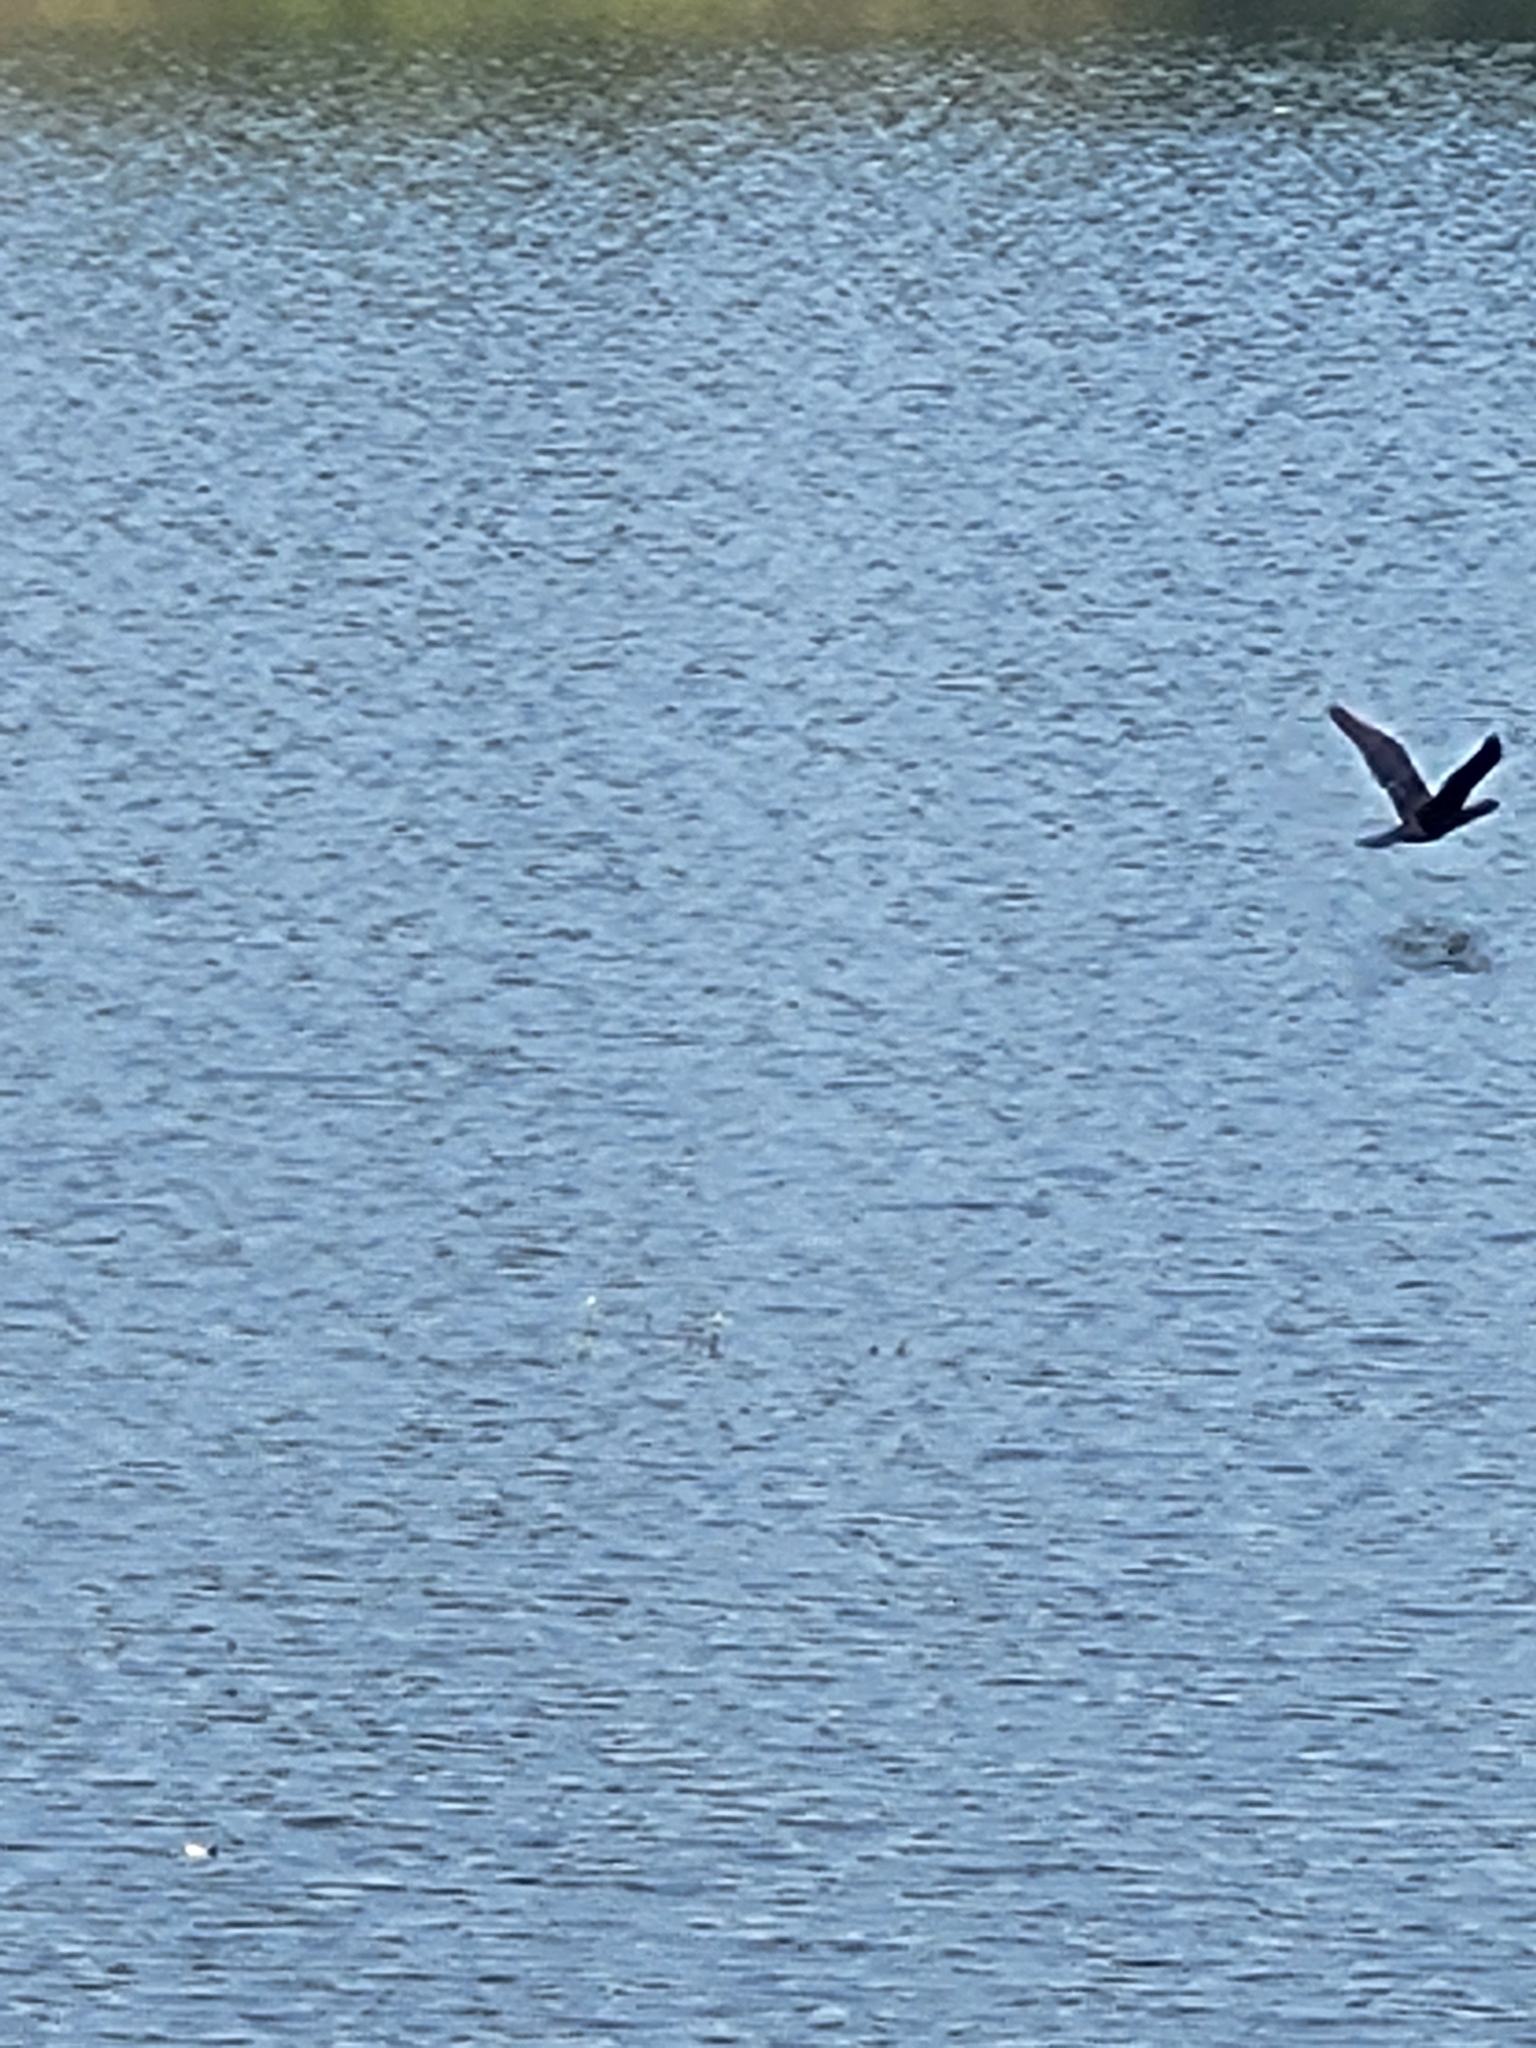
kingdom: Animalia
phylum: Chordata
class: Aves
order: Suliformes
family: Phalacrocoracidae
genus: Microcarbo
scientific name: Microcarbo niger
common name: Little cormorant
